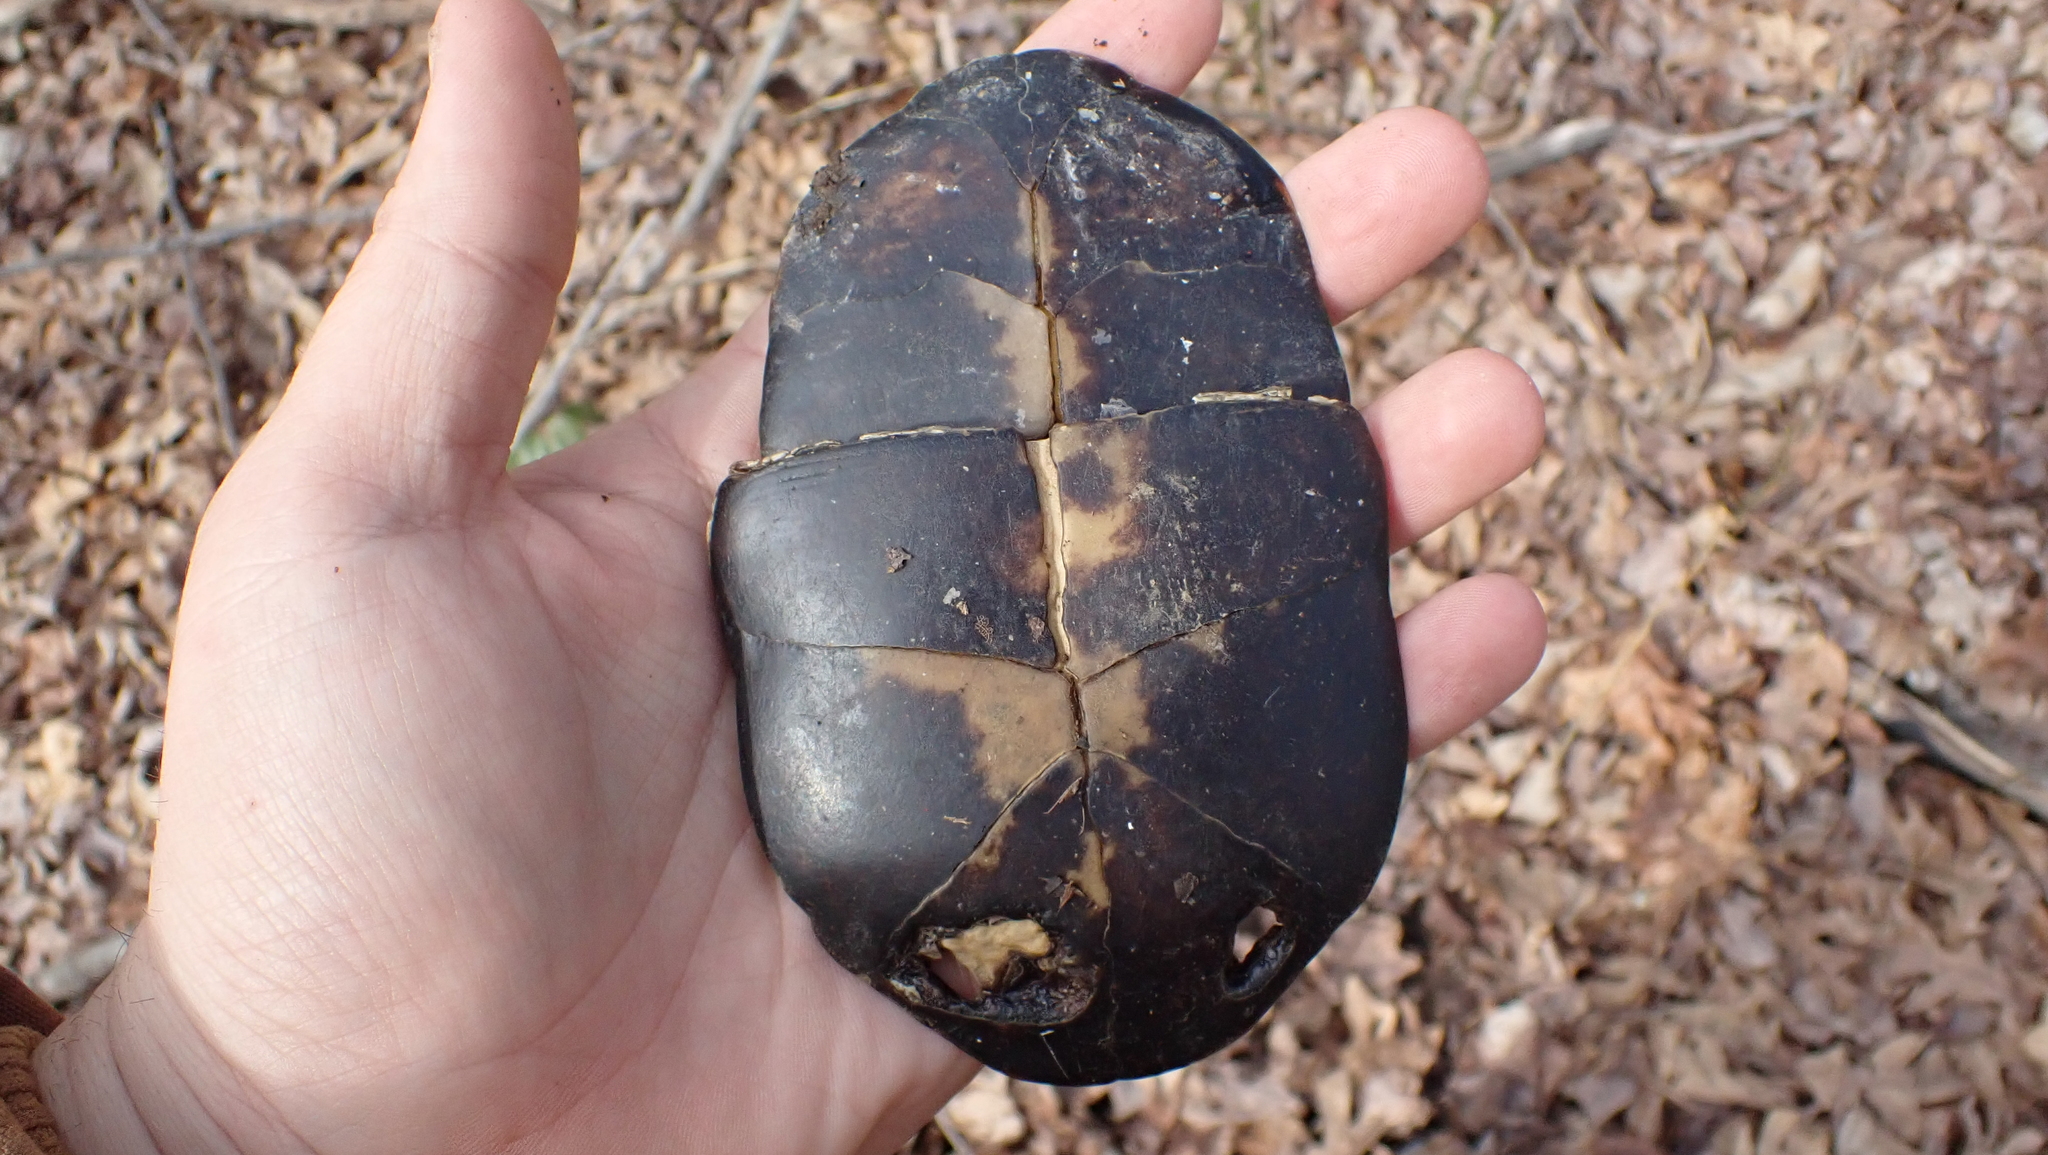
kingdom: Animalia
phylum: Chordata
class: Testudines
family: Emydidae
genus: Terrapene
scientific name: Terrapene carolina
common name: Common box turtle
